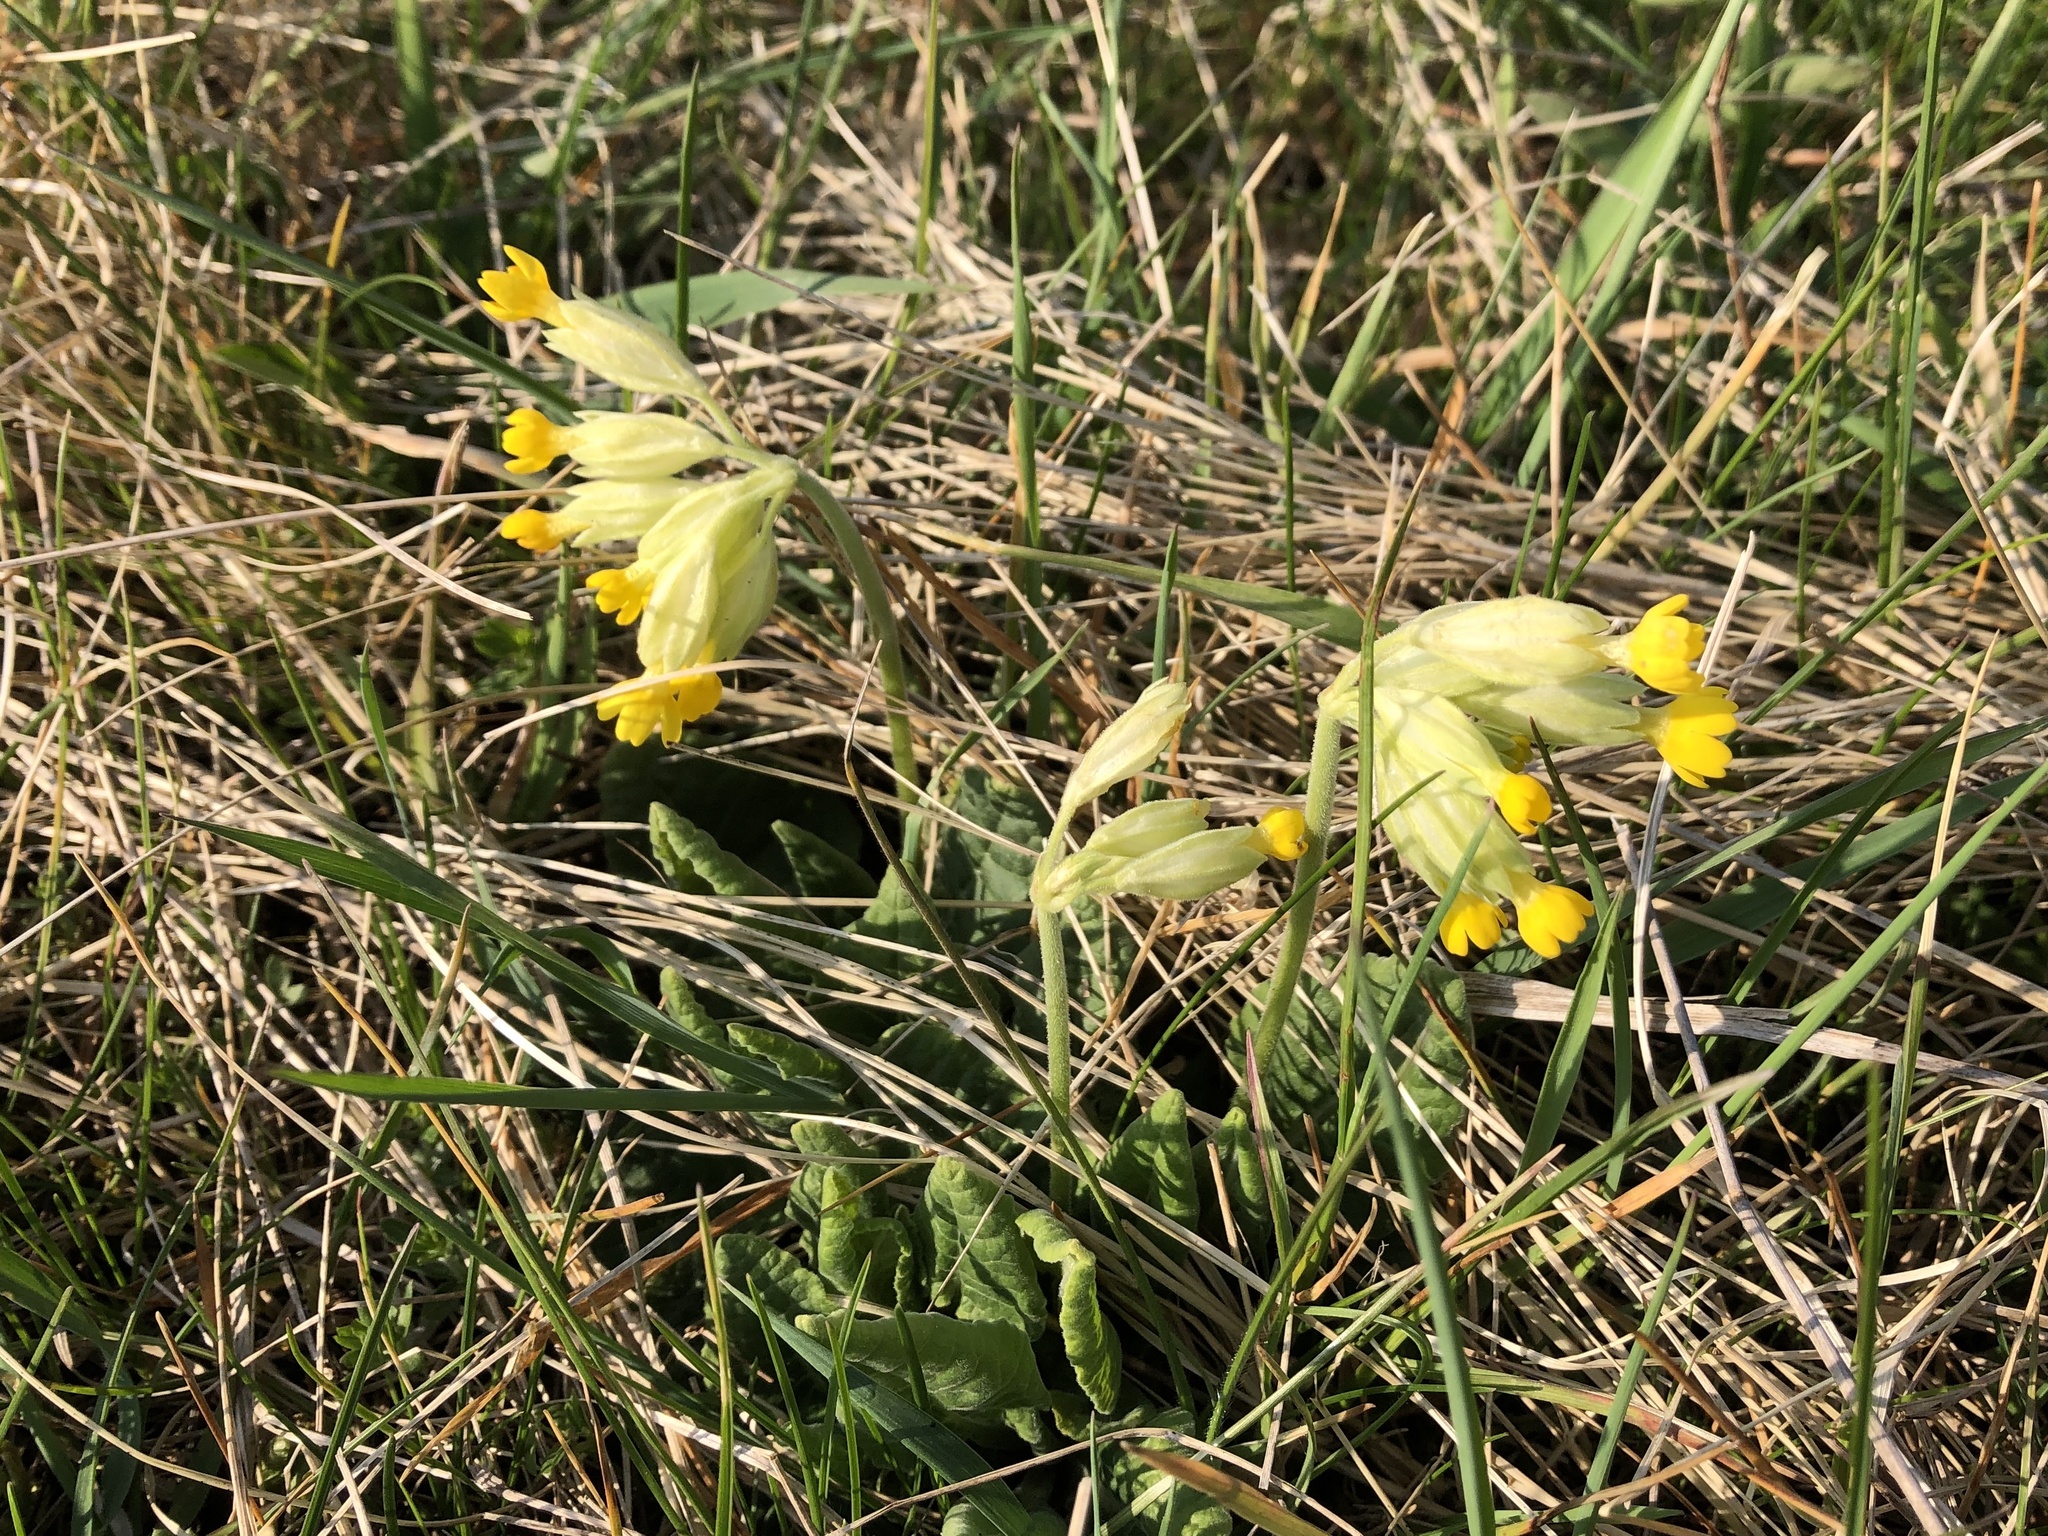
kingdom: Plantae
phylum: Tracheophyta
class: Magnoliopsida
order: Ericales
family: Primulaceae
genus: Primula
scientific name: Primula veris
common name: Cowslip
